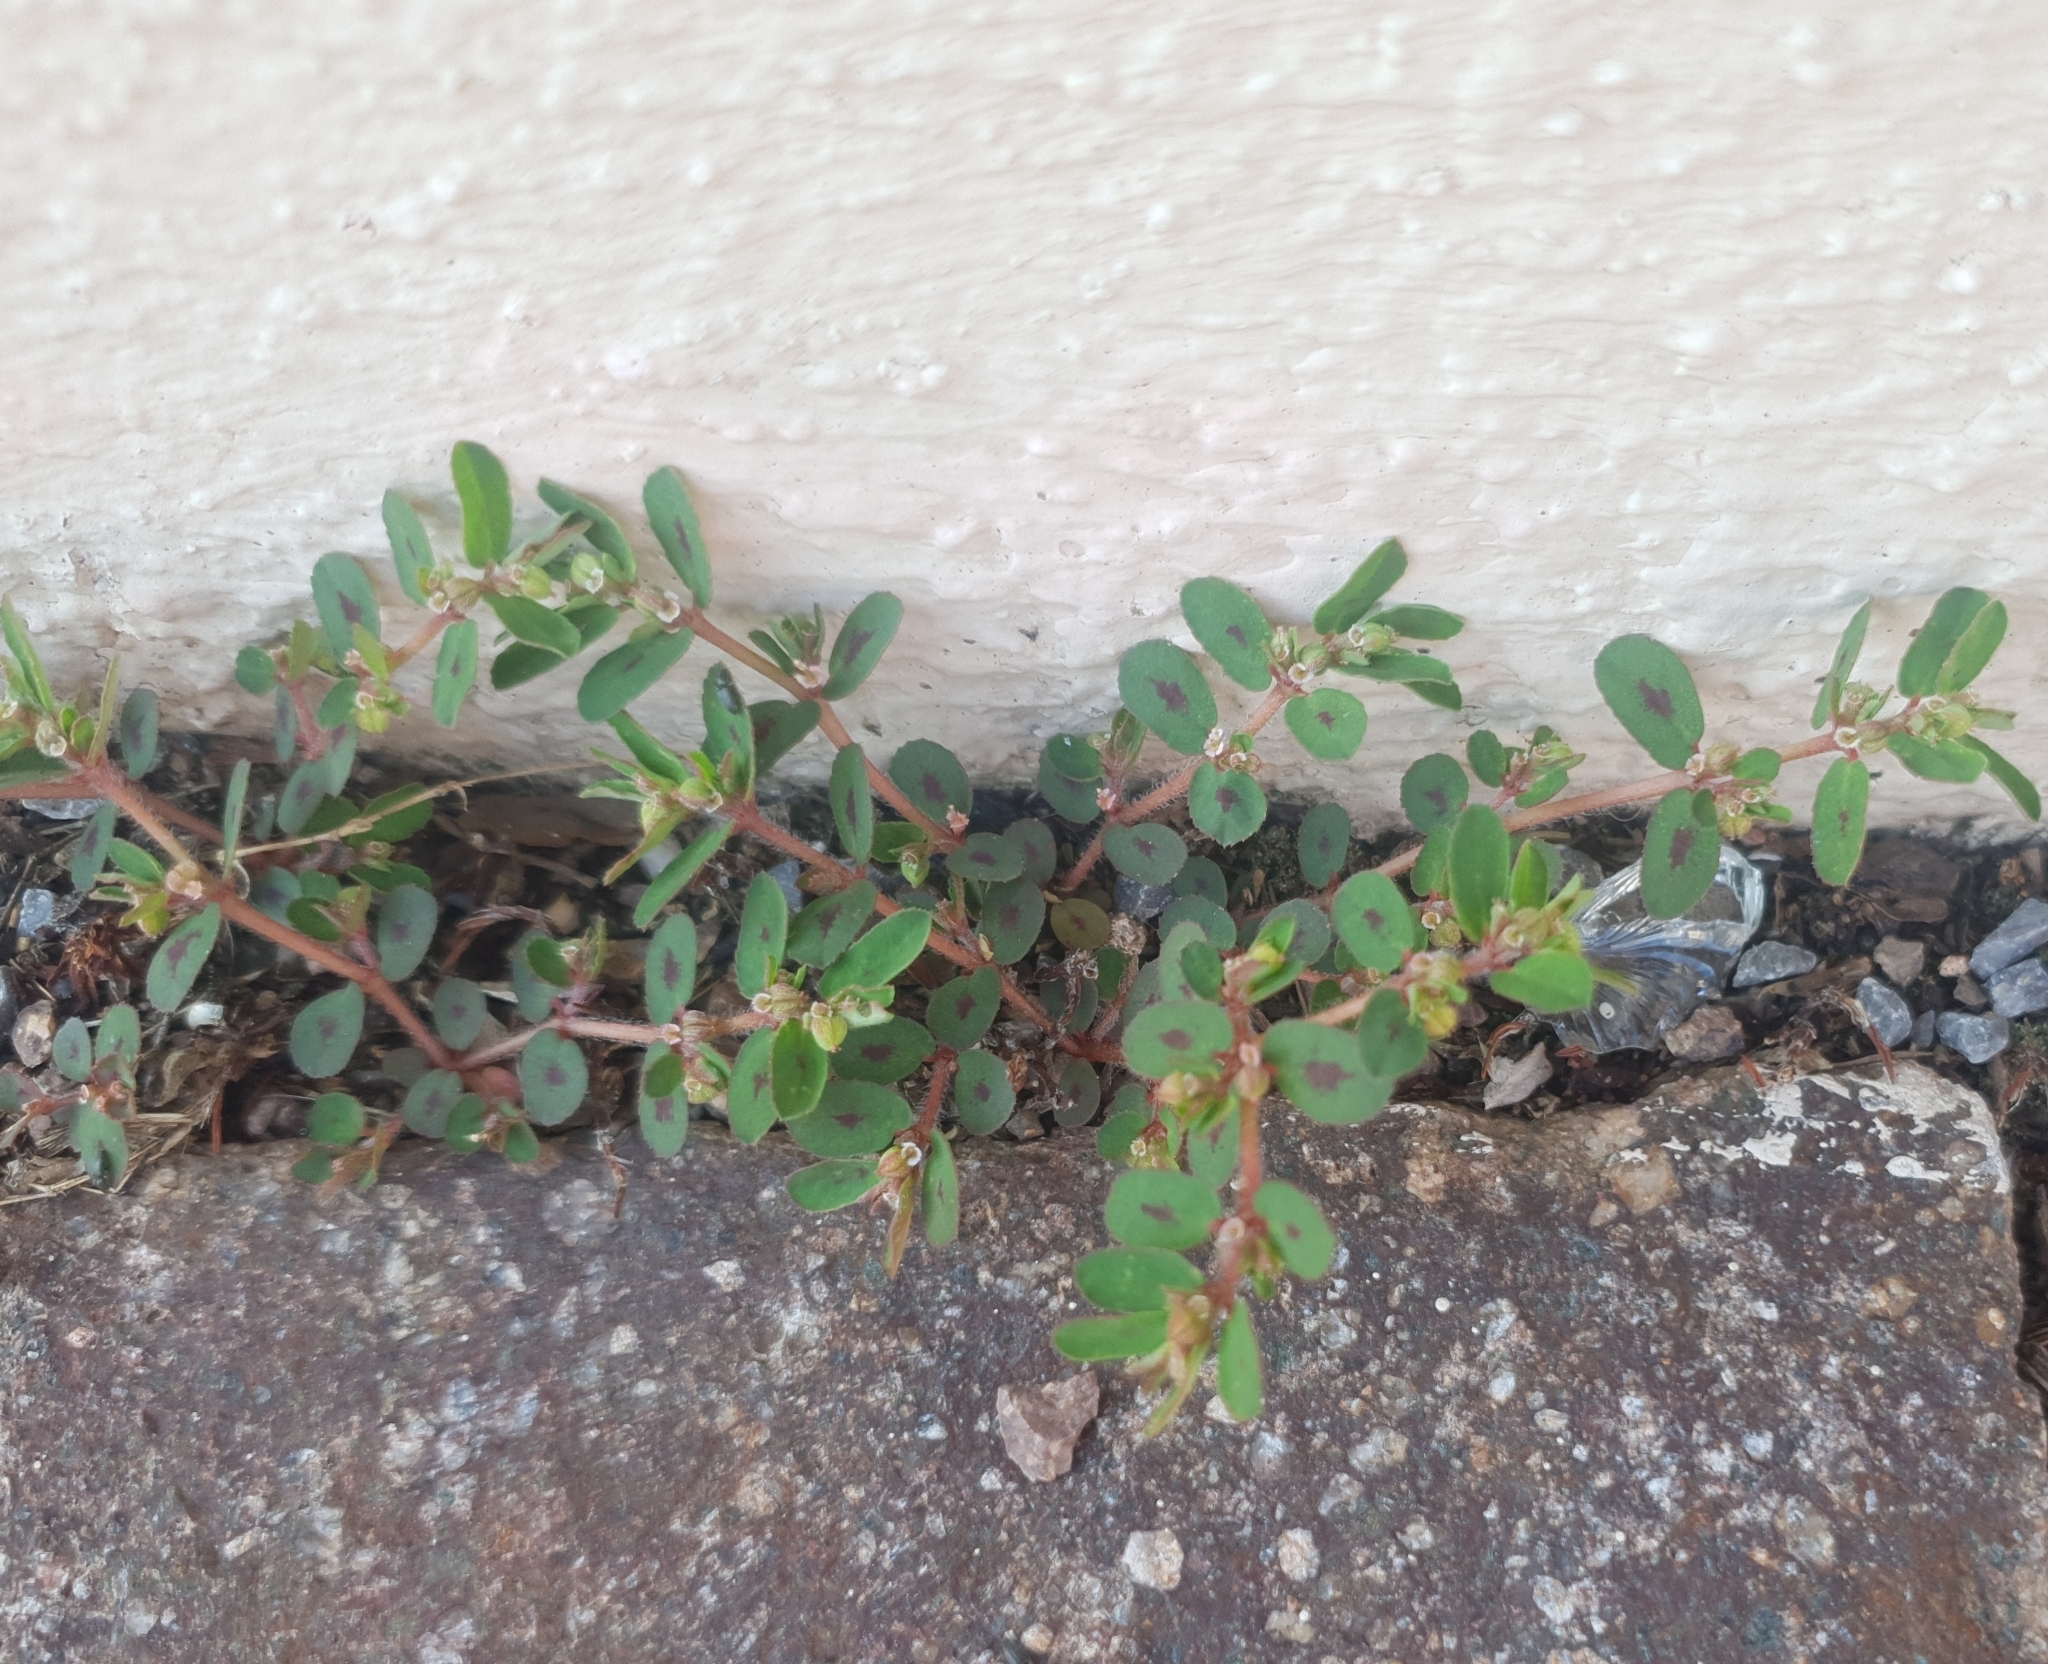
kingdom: Plantae
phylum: Tracheophyta
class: Magnoliopsida
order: Malpighiales
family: Euphorbiaceae
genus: Euphorbia
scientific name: Euphorbia maculata
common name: Spotted spurge
